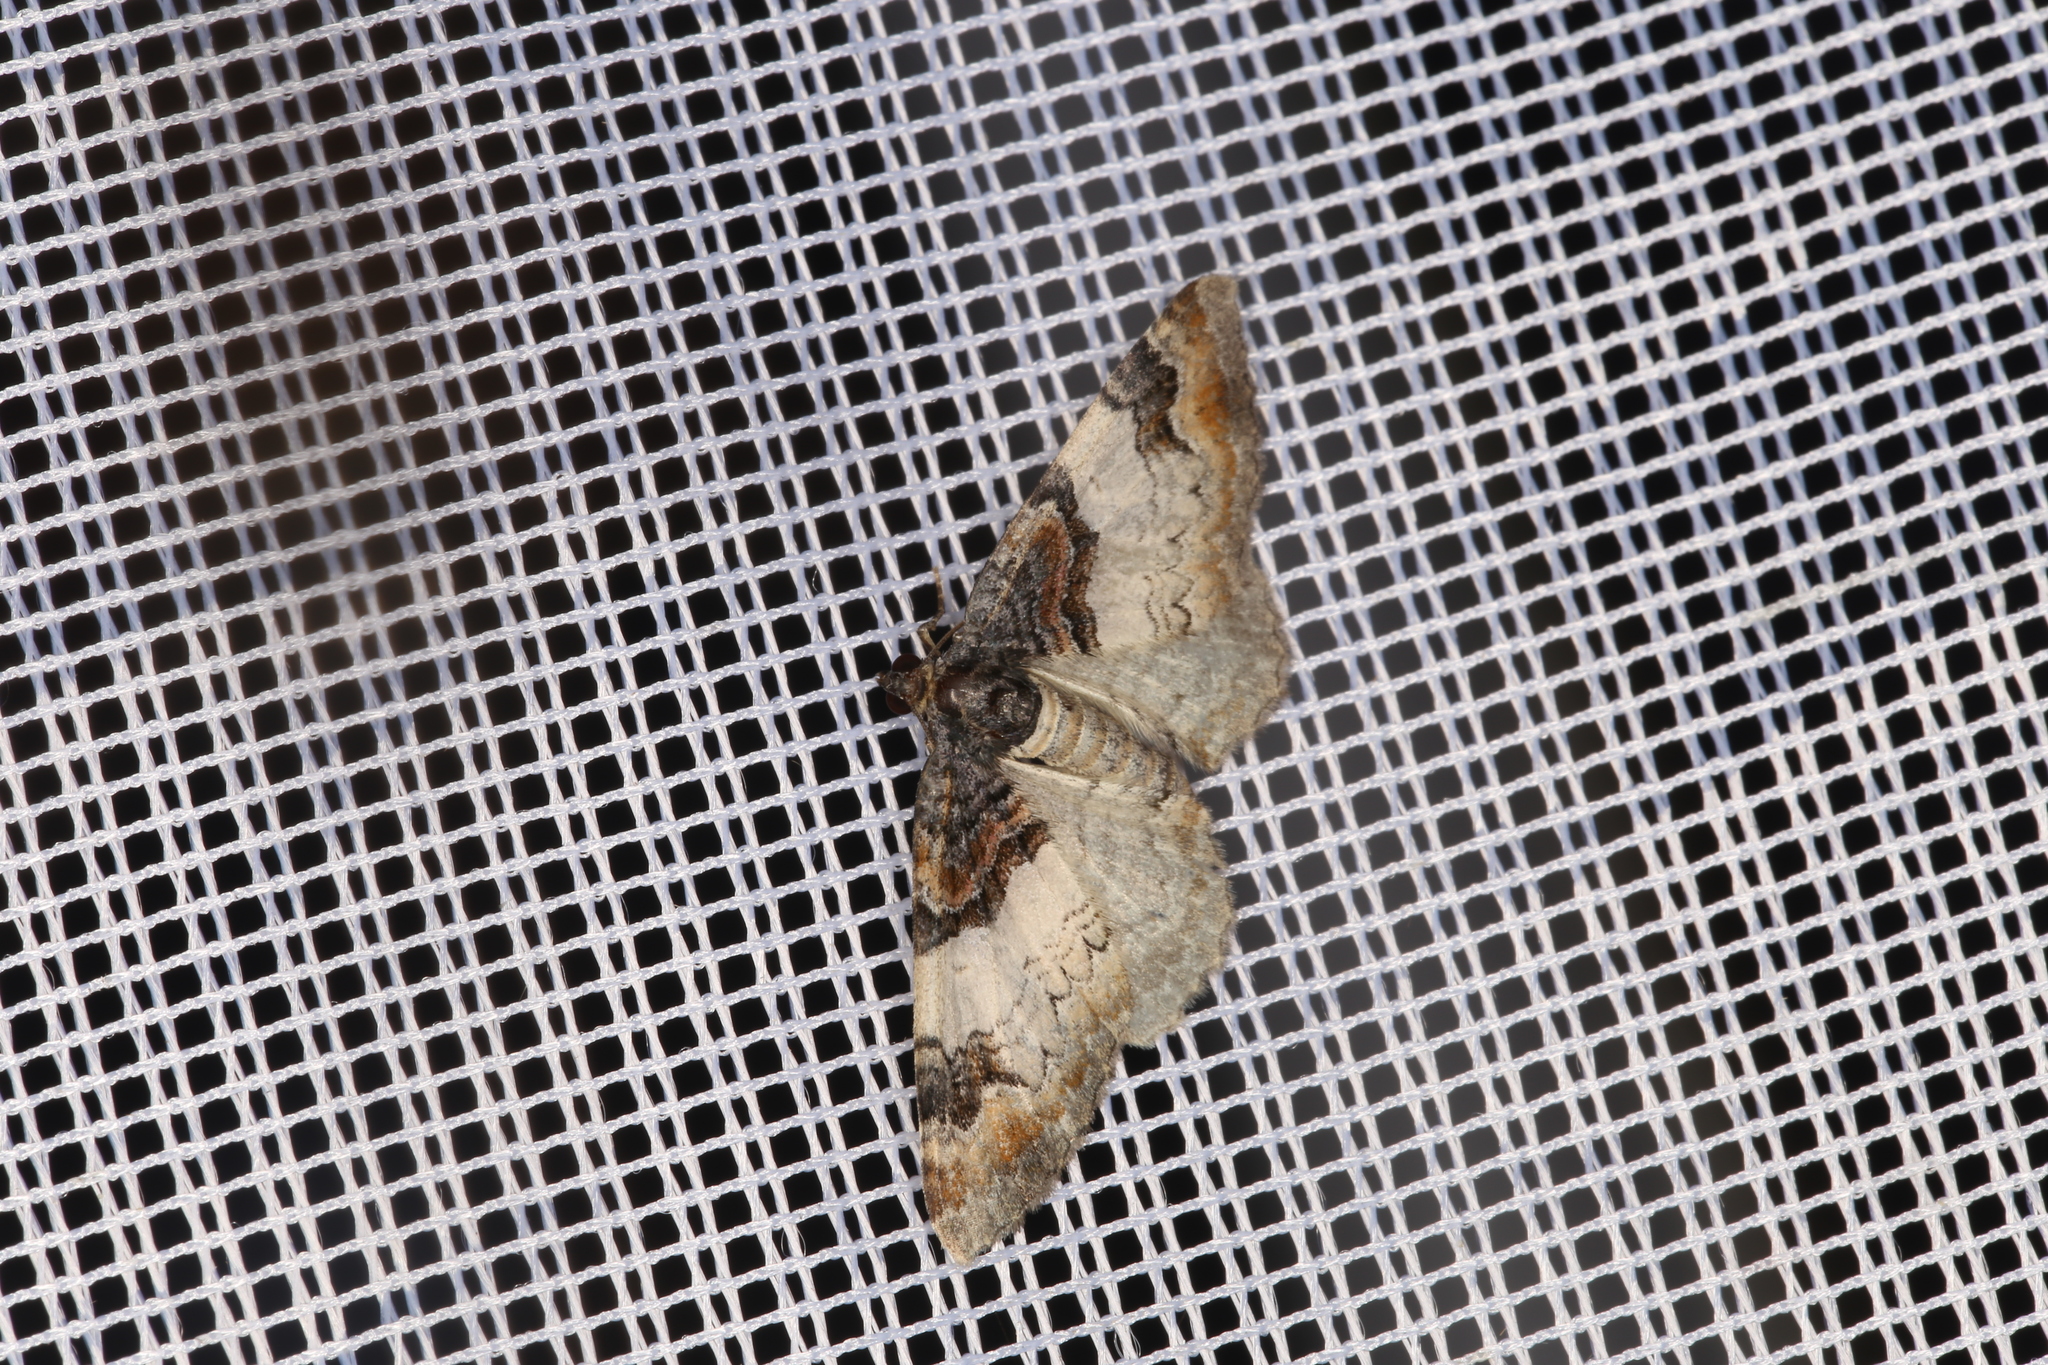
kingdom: Animalia
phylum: Arthropoda
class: Insecta
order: Lepidoptera
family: Geometridae
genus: Catarhoe
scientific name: Catarhoe cuculata
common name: Royal mantle
